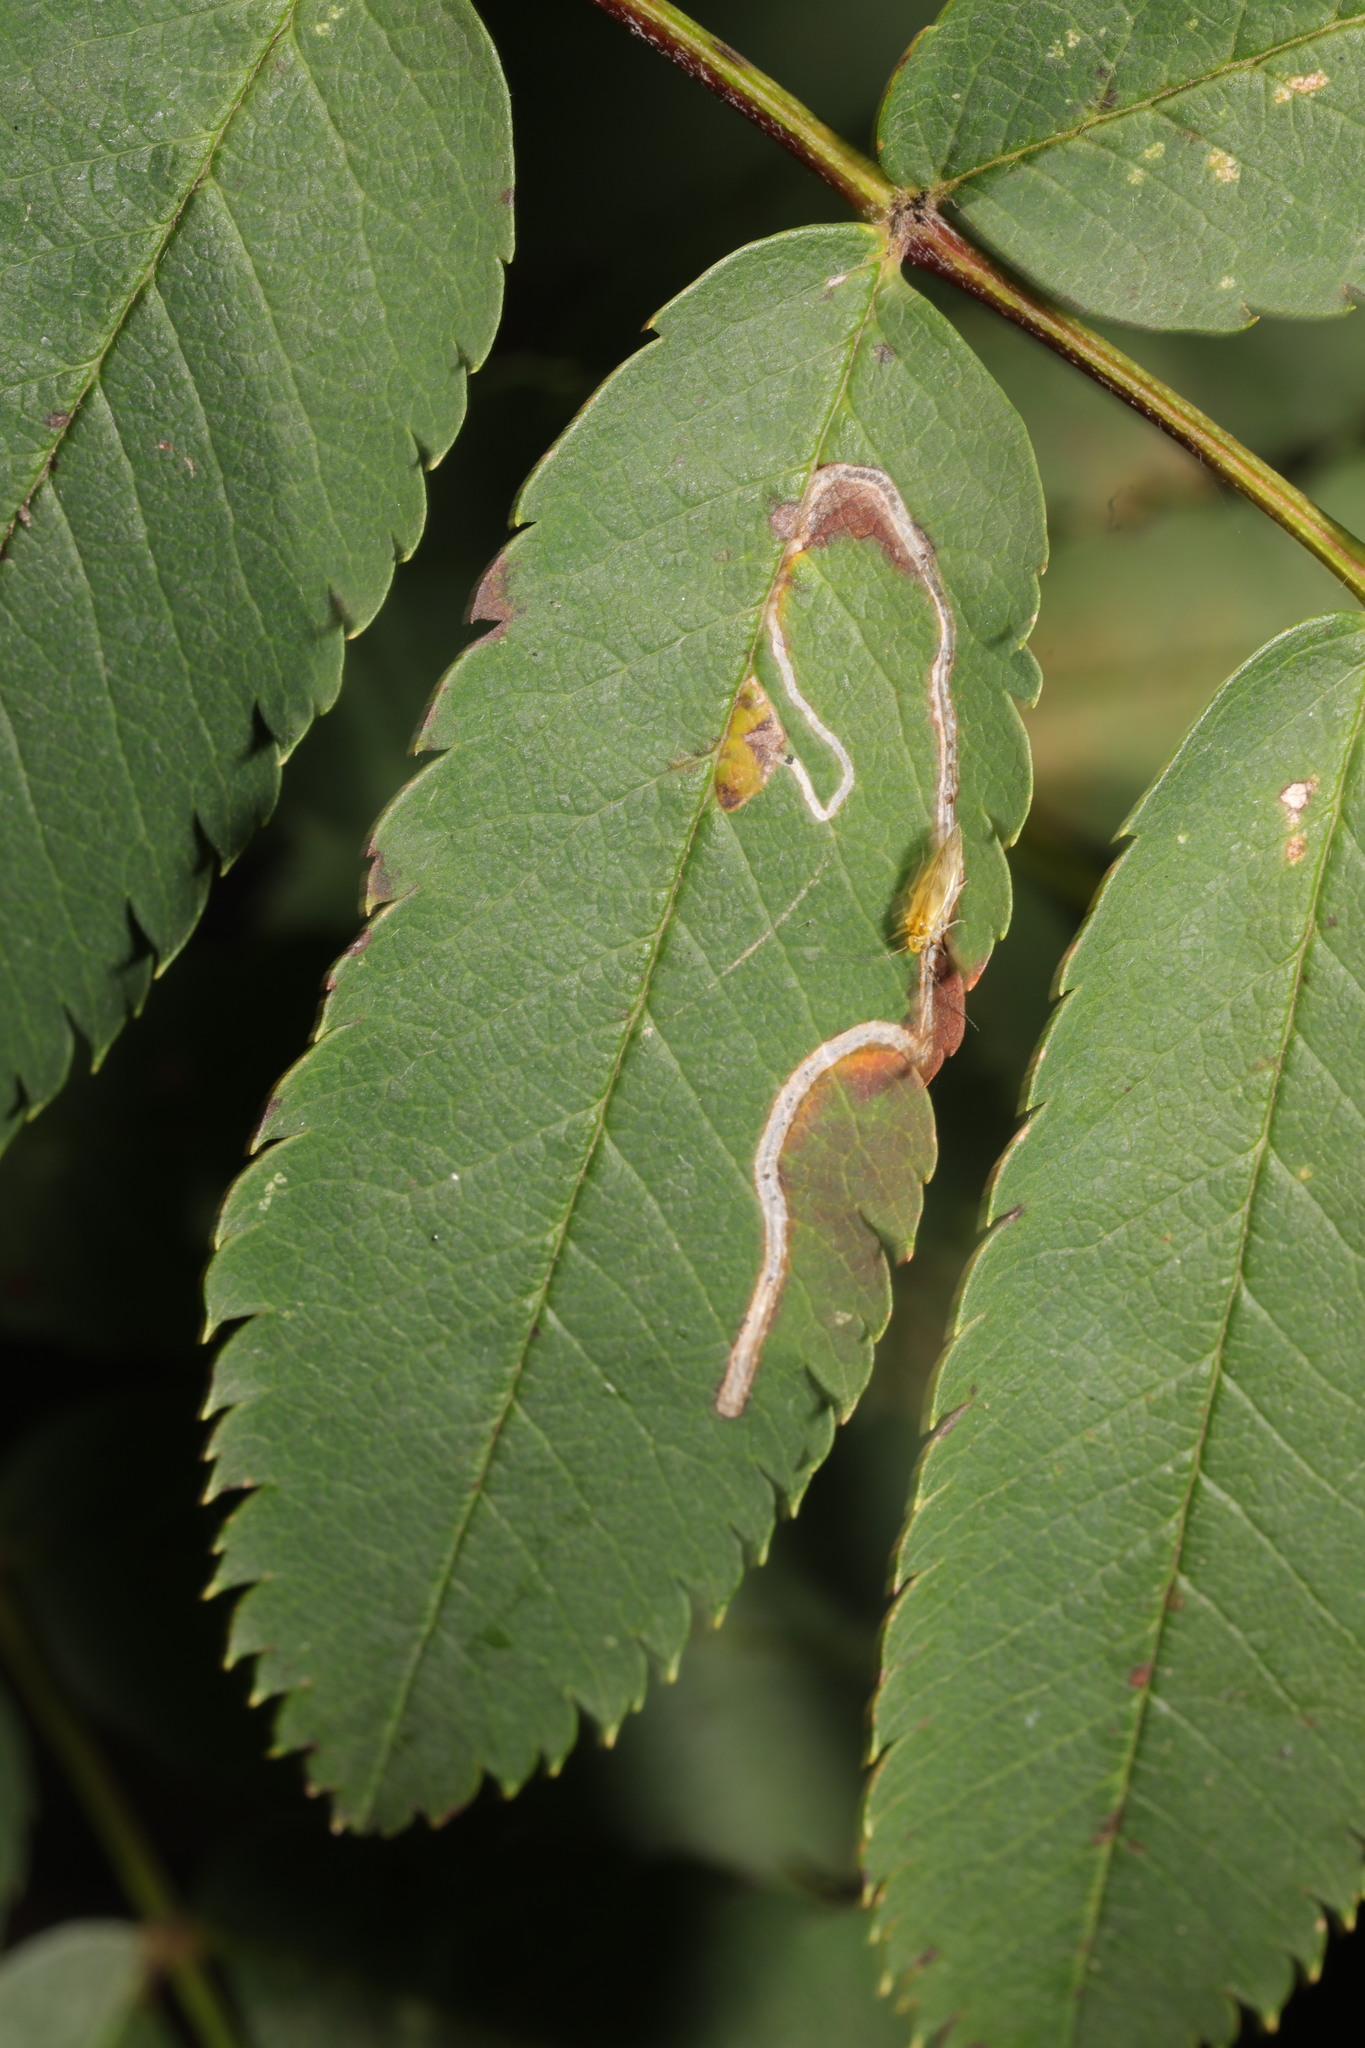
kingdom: Animalia
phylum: Arthropoda
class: Insecta
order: Lepidoptera
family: Lyonetiidae
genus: Lyonetia
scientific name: Lyonetia clerkella
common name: Apple leaf miner
